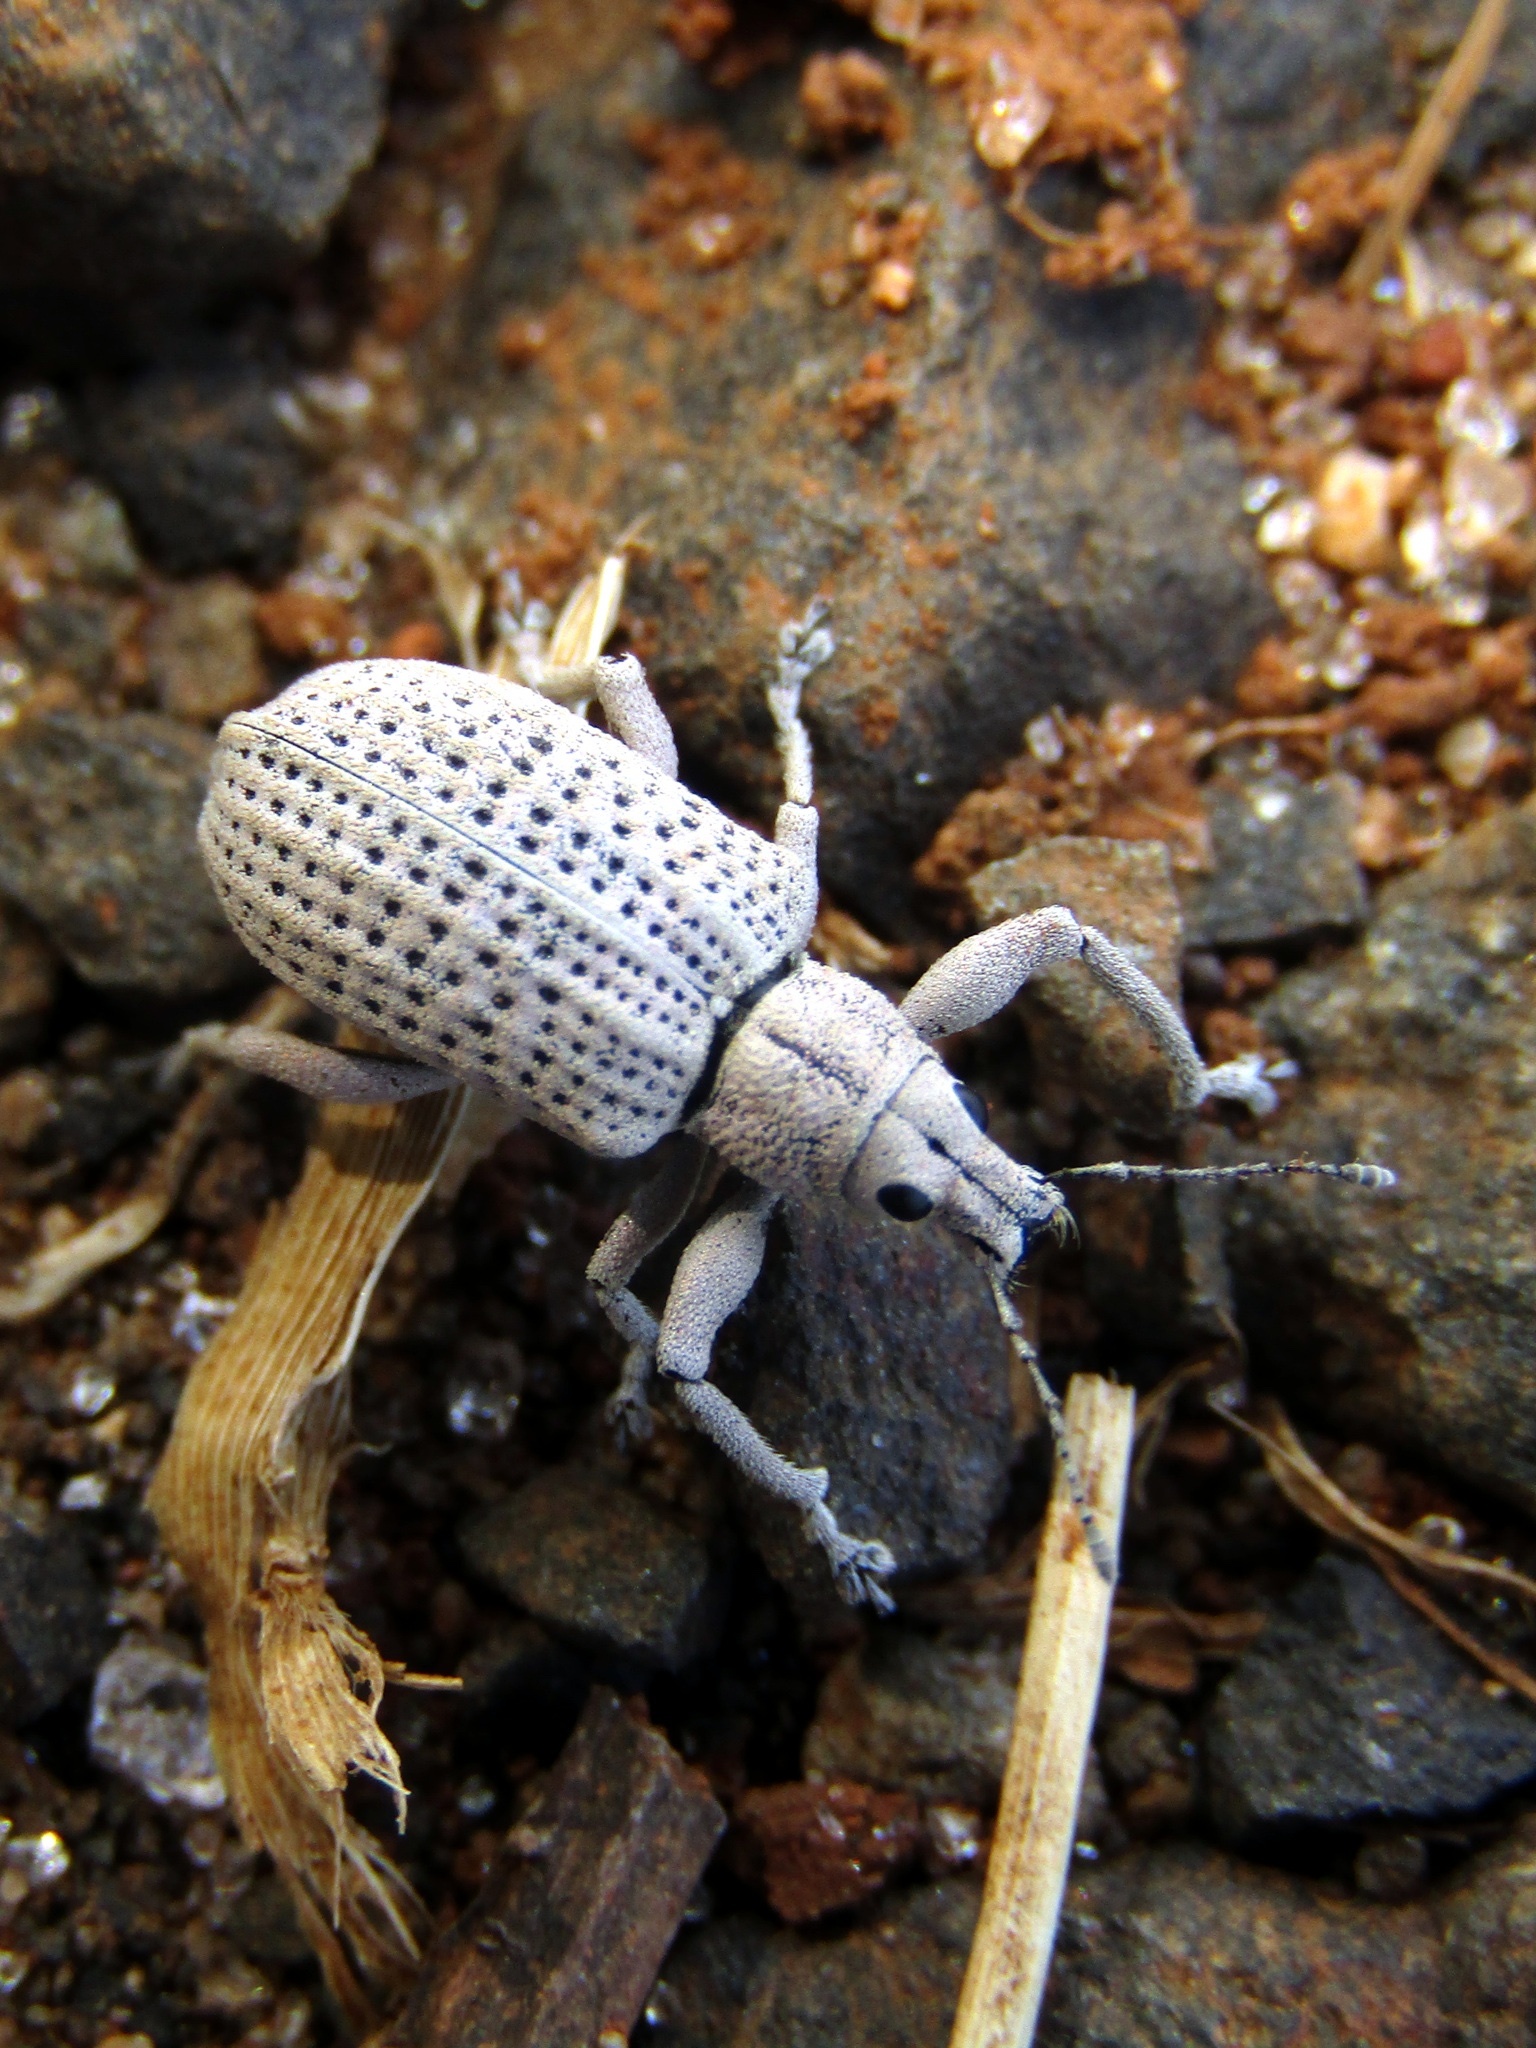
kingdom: Animalia
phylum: Arthropoda
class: Insecta
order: Coleoptera
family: Curculionidae
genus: Pullenius
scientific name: Pullenius kimberii
